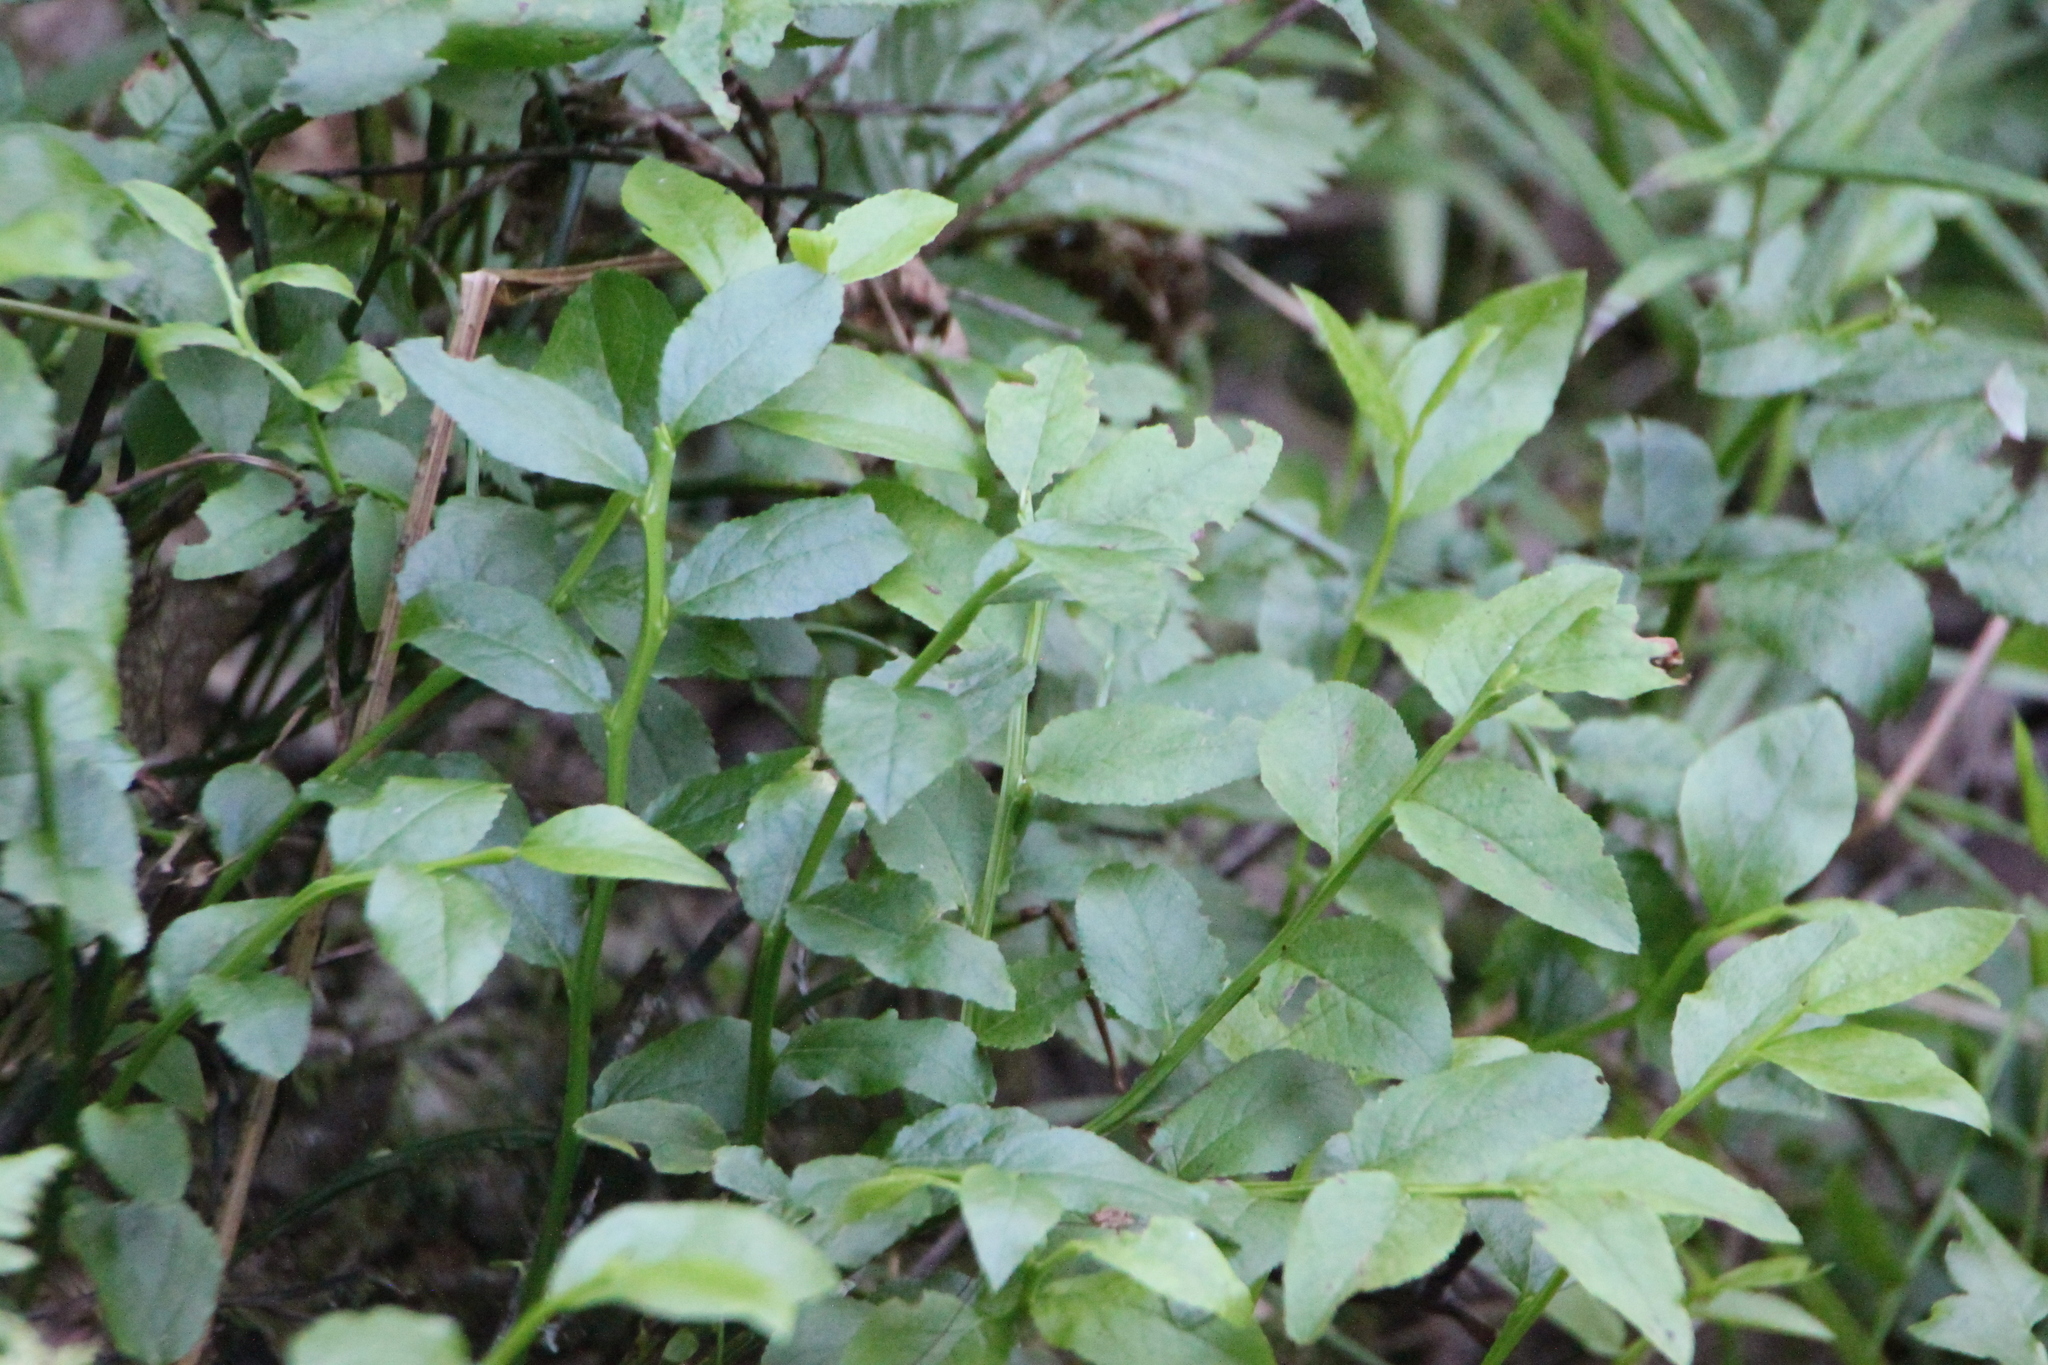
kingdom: Plantae
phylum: Tracheophyta
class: Magnoliopsida
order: Ericales
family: Ericaceae
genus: Vaccinium
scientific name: Vaccinium myrtillus
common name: Bilberry
